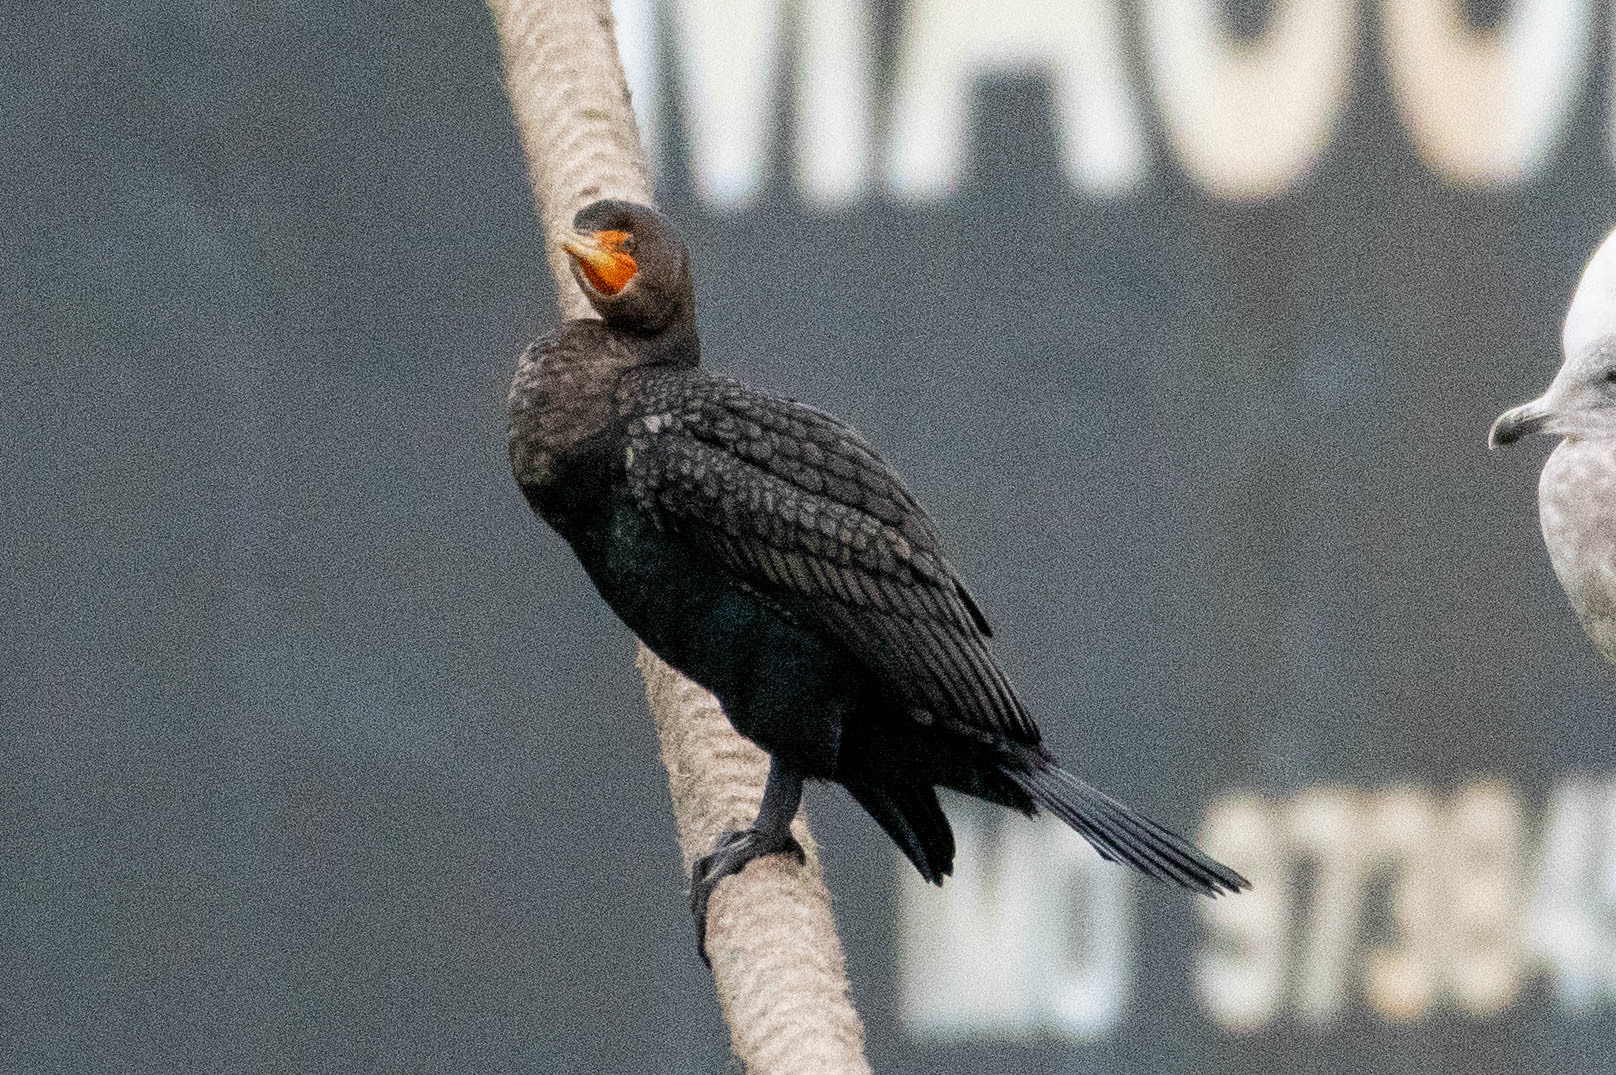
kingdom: Animalia
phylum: Chordata
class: Aves
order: Suliformes
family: Phalacrocoracidae
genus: Phalacrocorax
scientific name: Phalacrocorax auritus
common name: Double-crested cormorant
